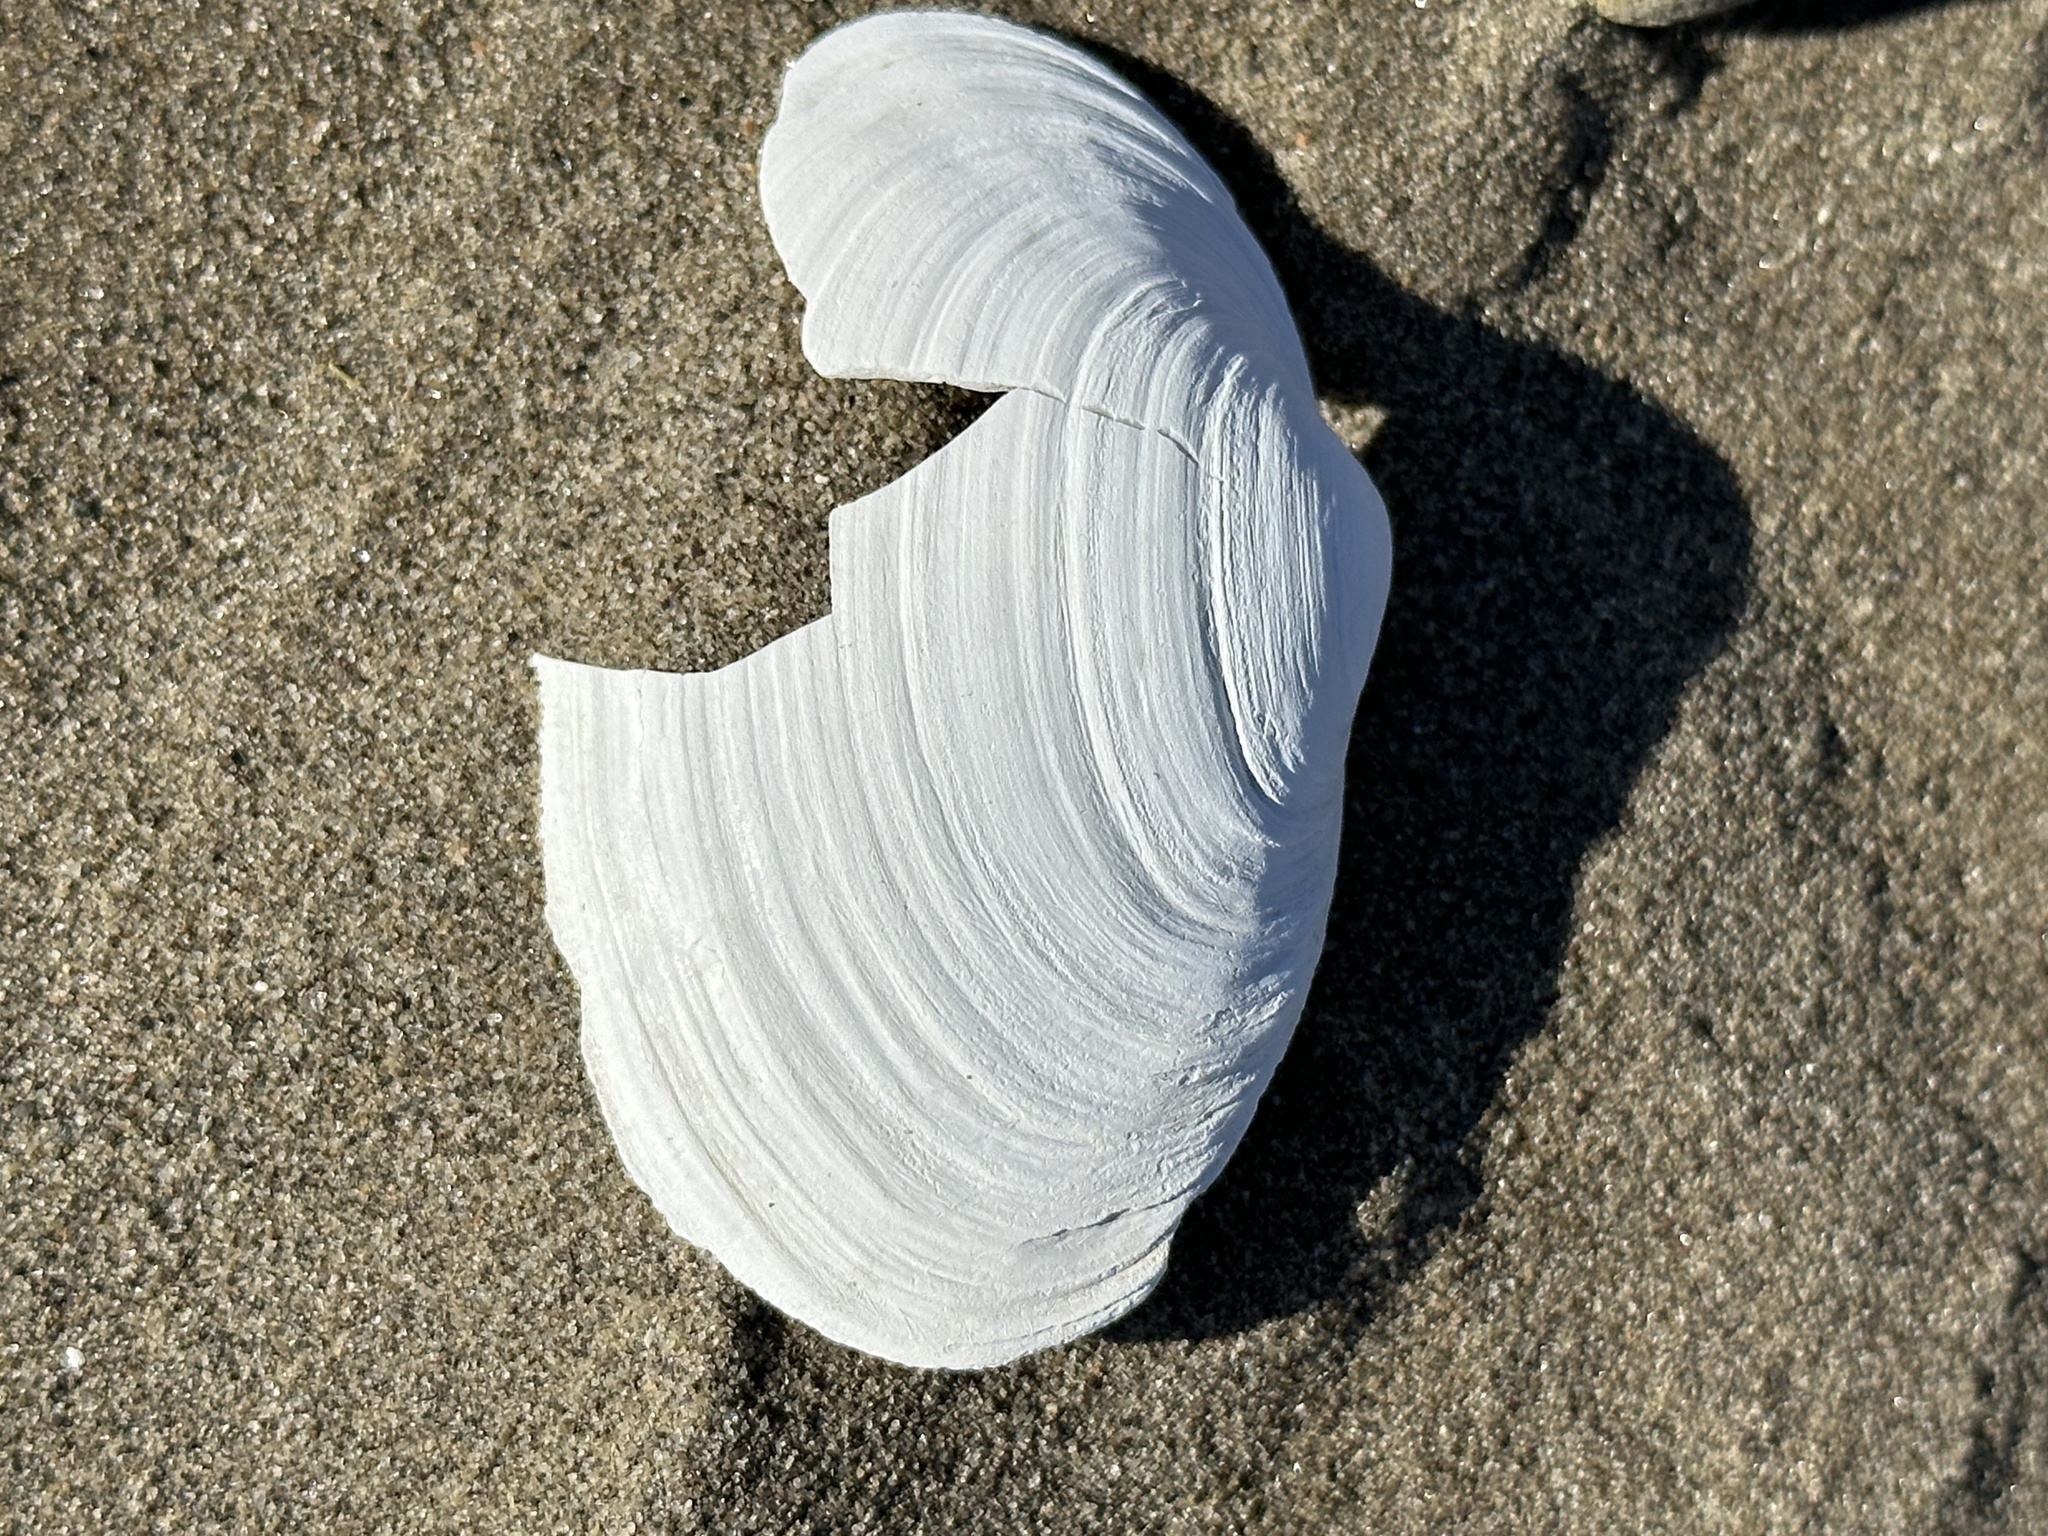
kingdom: Animalia
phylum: Mollusca
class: Bivalvia
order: Myida
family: Myidae
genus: Mya
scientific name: Mya arenaria
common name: Soft-shelled clam
